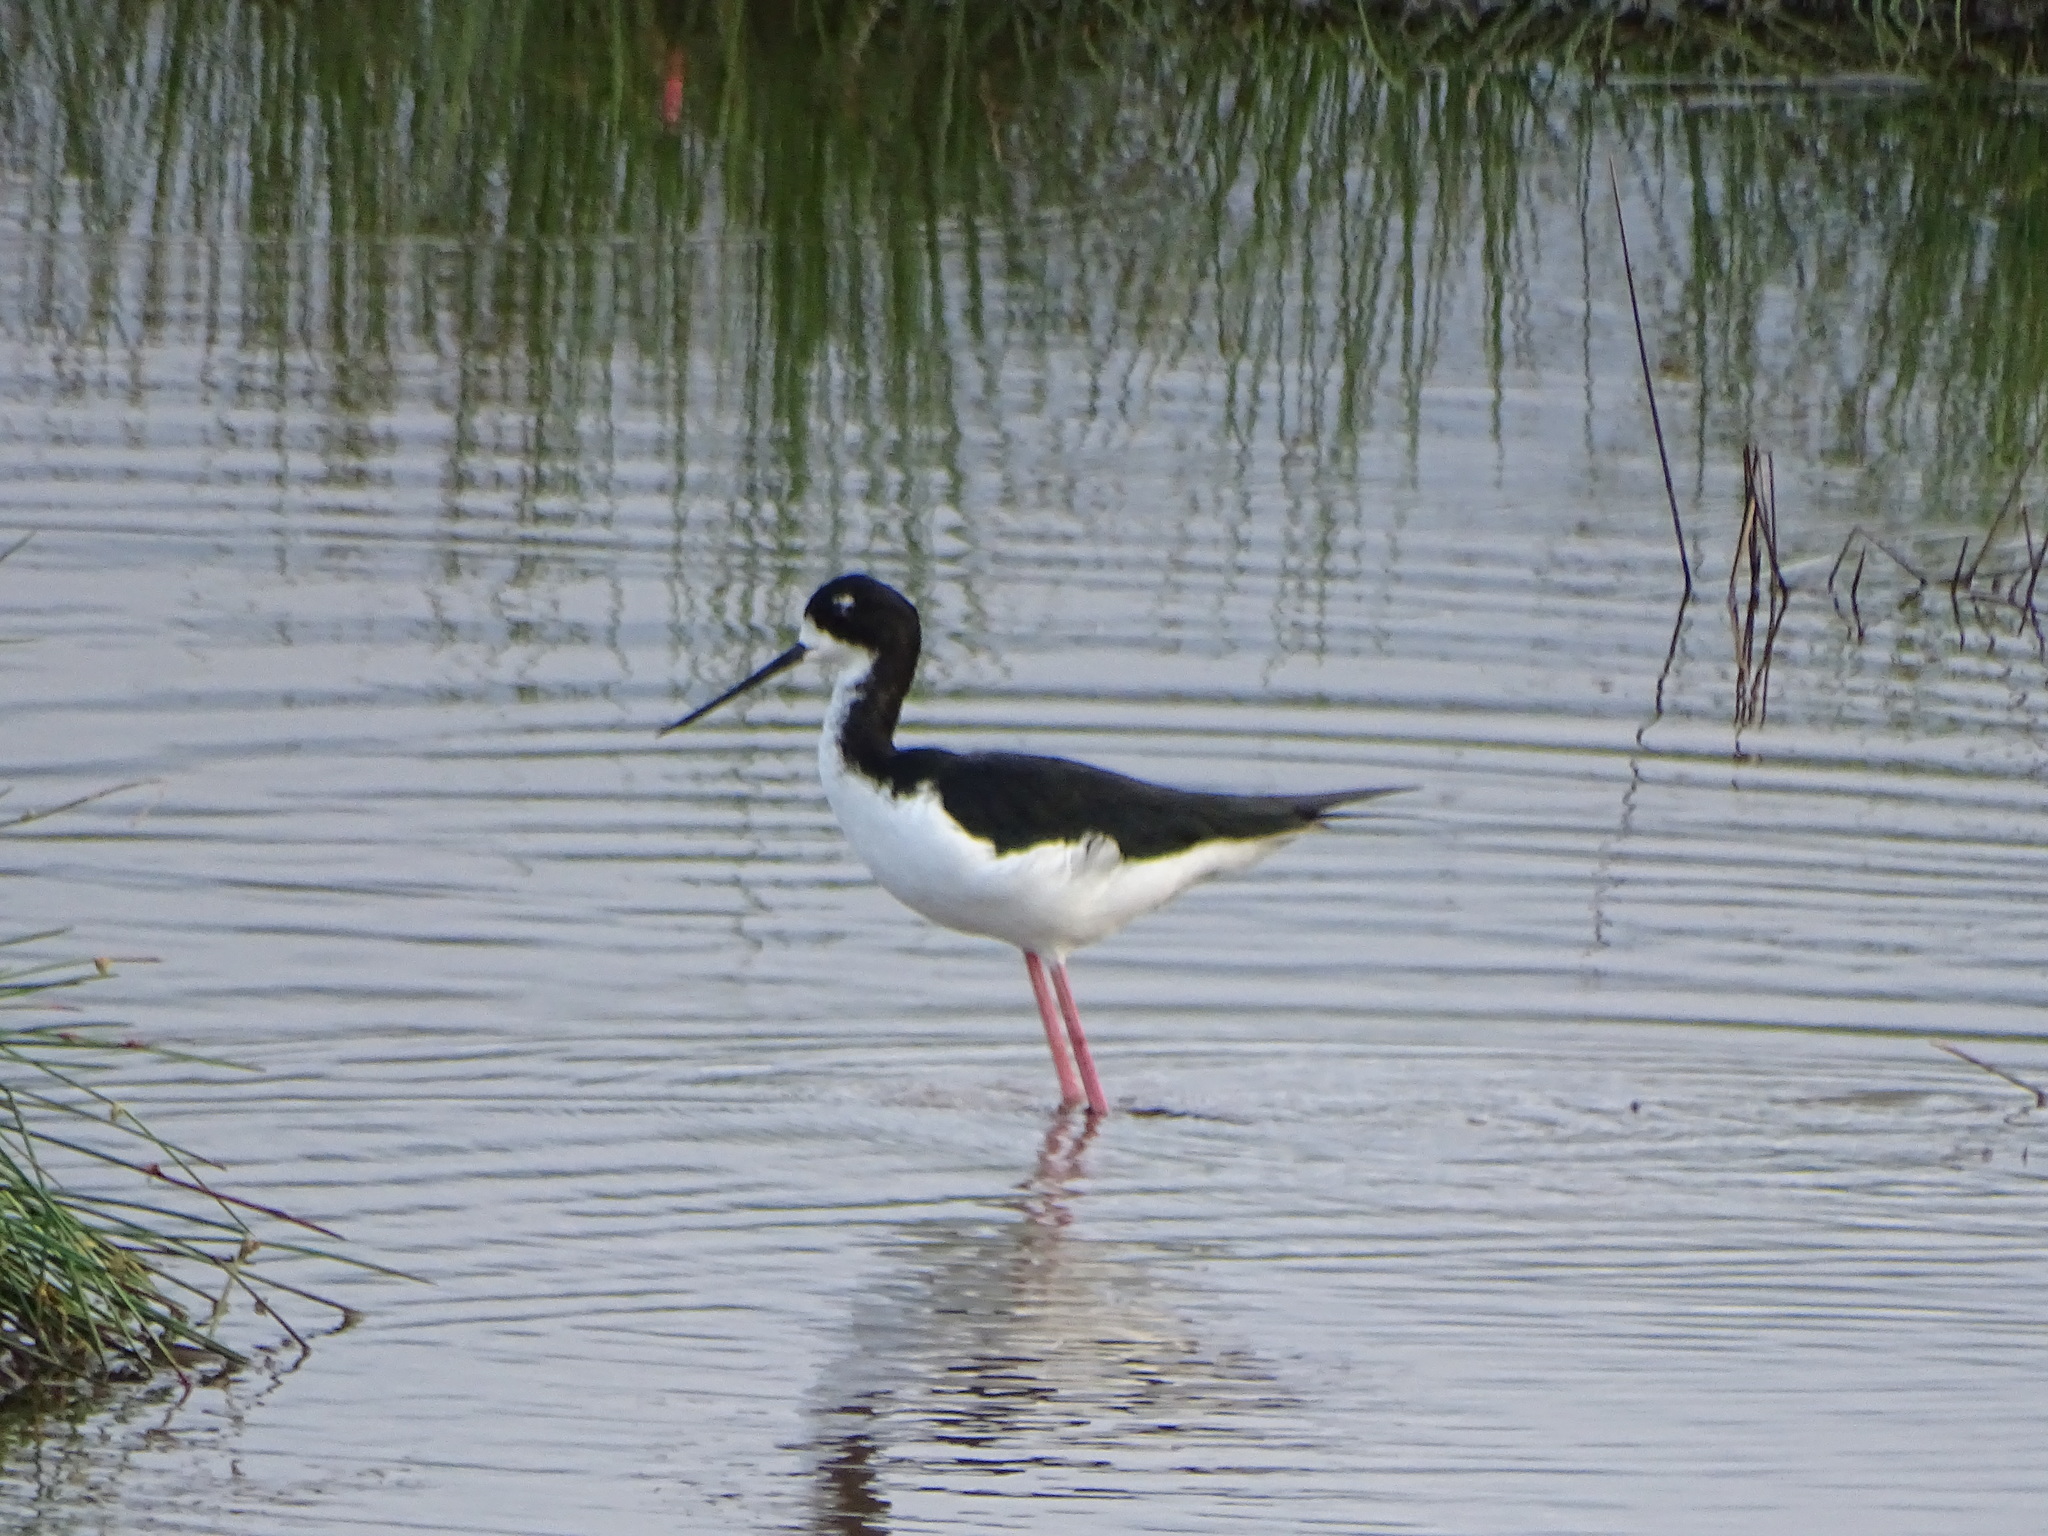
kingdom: Animalia
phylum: Chordata
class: Aves
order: Charadriiformes
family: Recurvirostridae
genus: Himantopus
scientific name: Himantopus mexicanus
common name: Black-necked stilt
